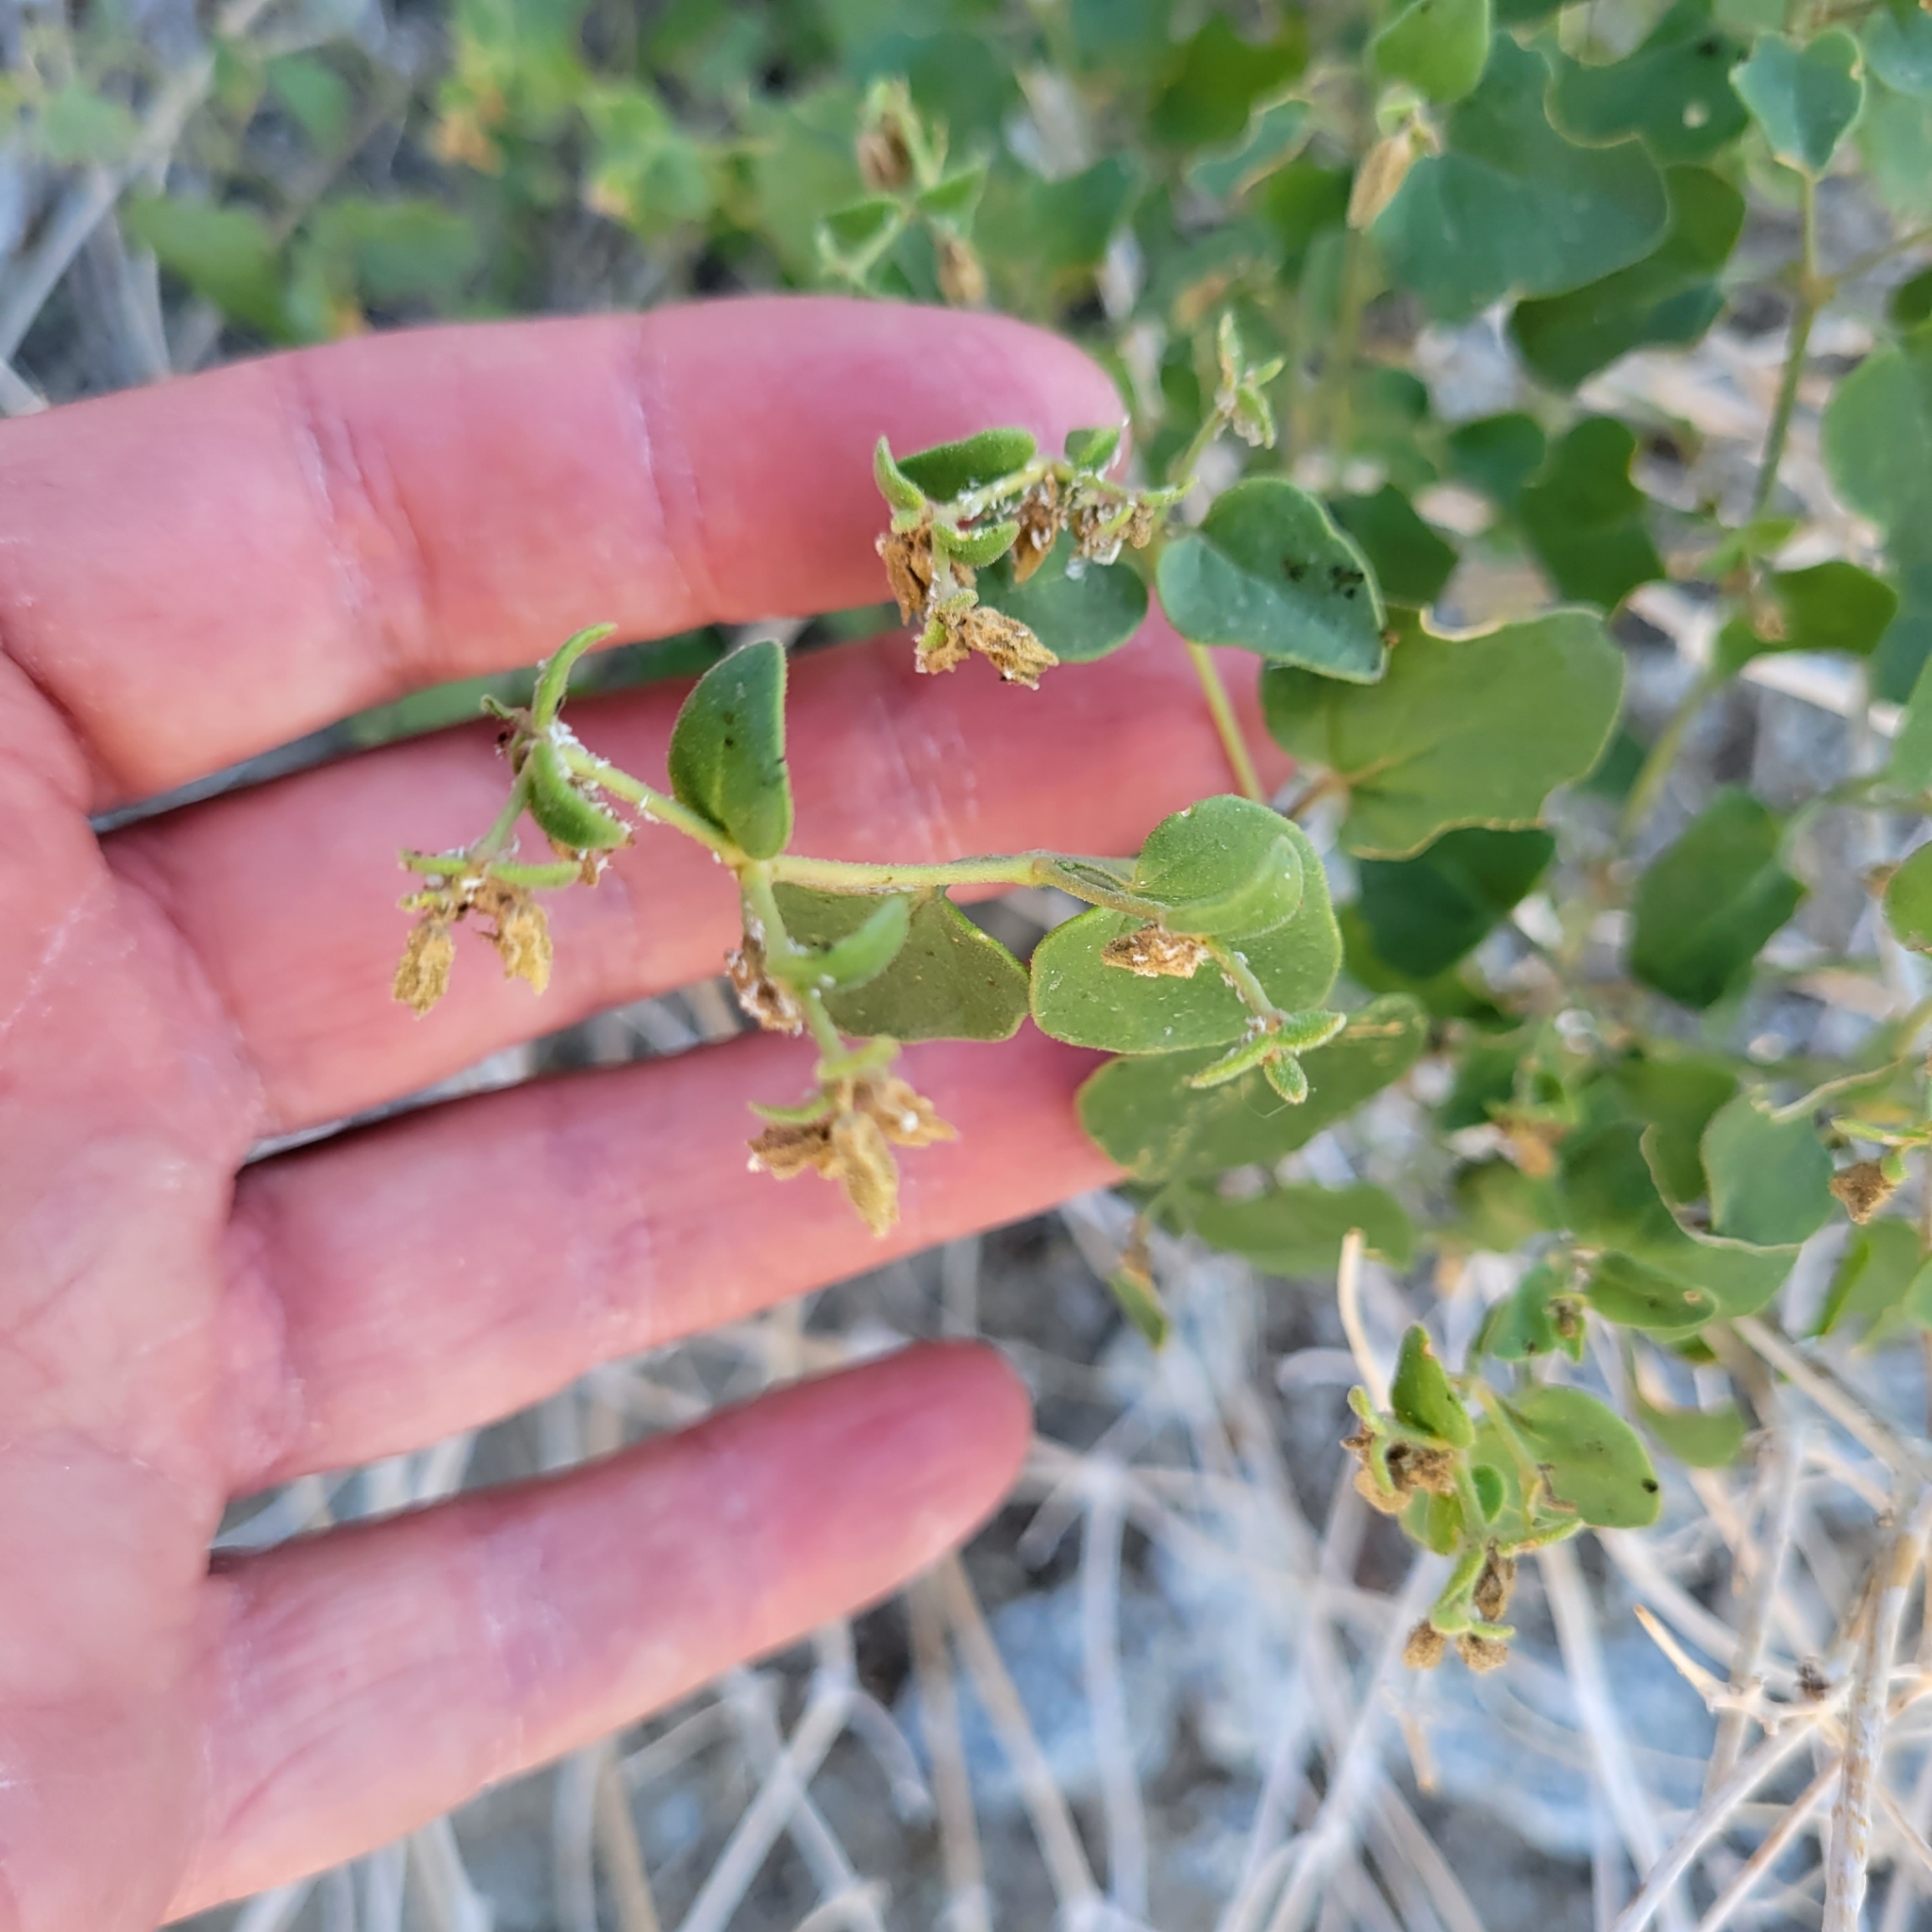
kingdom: Plantae
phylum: Tracheophyta
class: Magnoliopsida
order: Caryophyllales
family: Nyctaginaceae
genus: Mirabilis
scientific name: Mirabilis laevis
